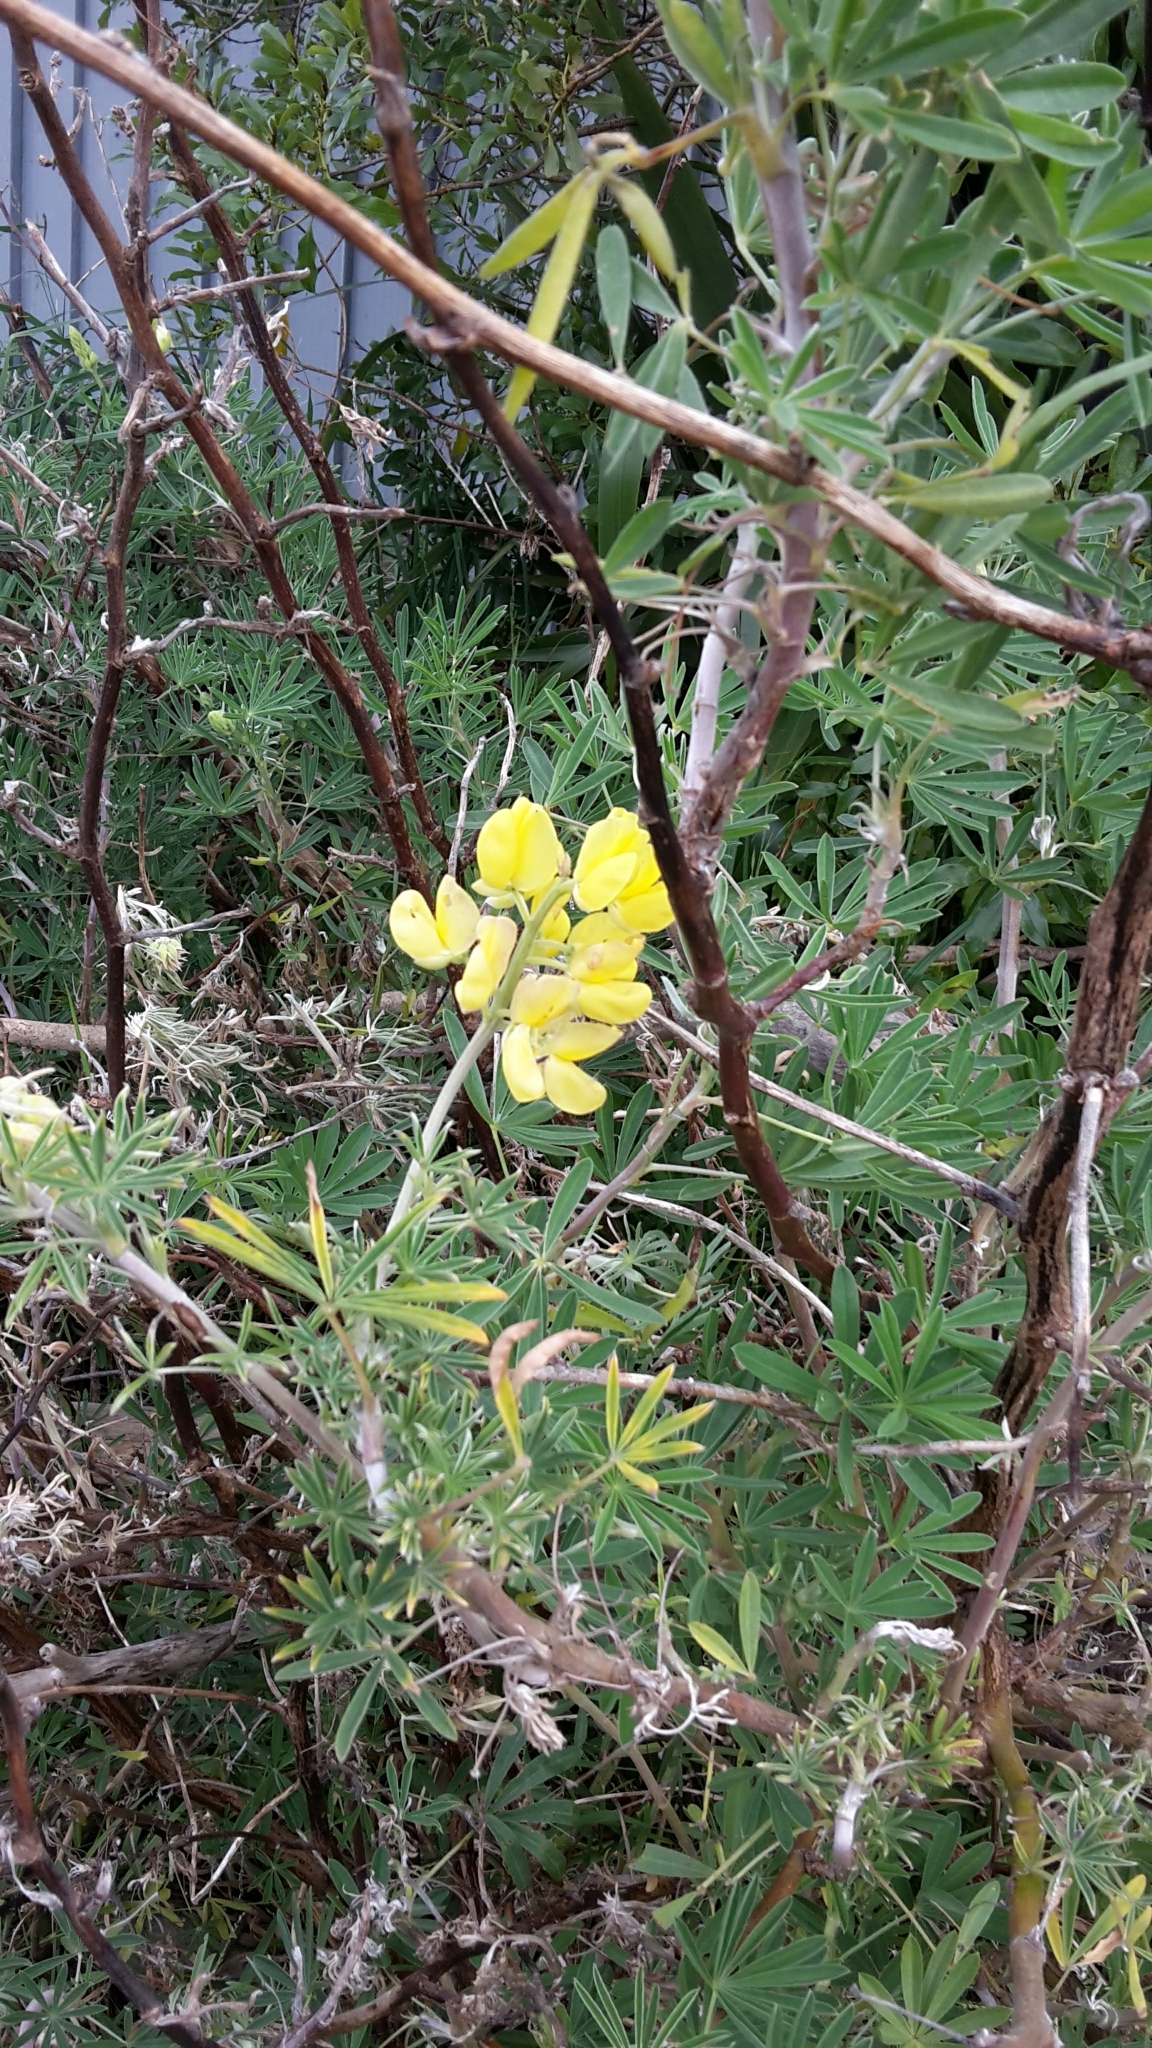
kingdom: Plantae
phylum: Tracheophyta
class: Magnoliopsida
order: Fabales
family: Fabaceae
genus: Lupinus
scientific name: Lupinus arboreus
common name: Yellow bush lupine
